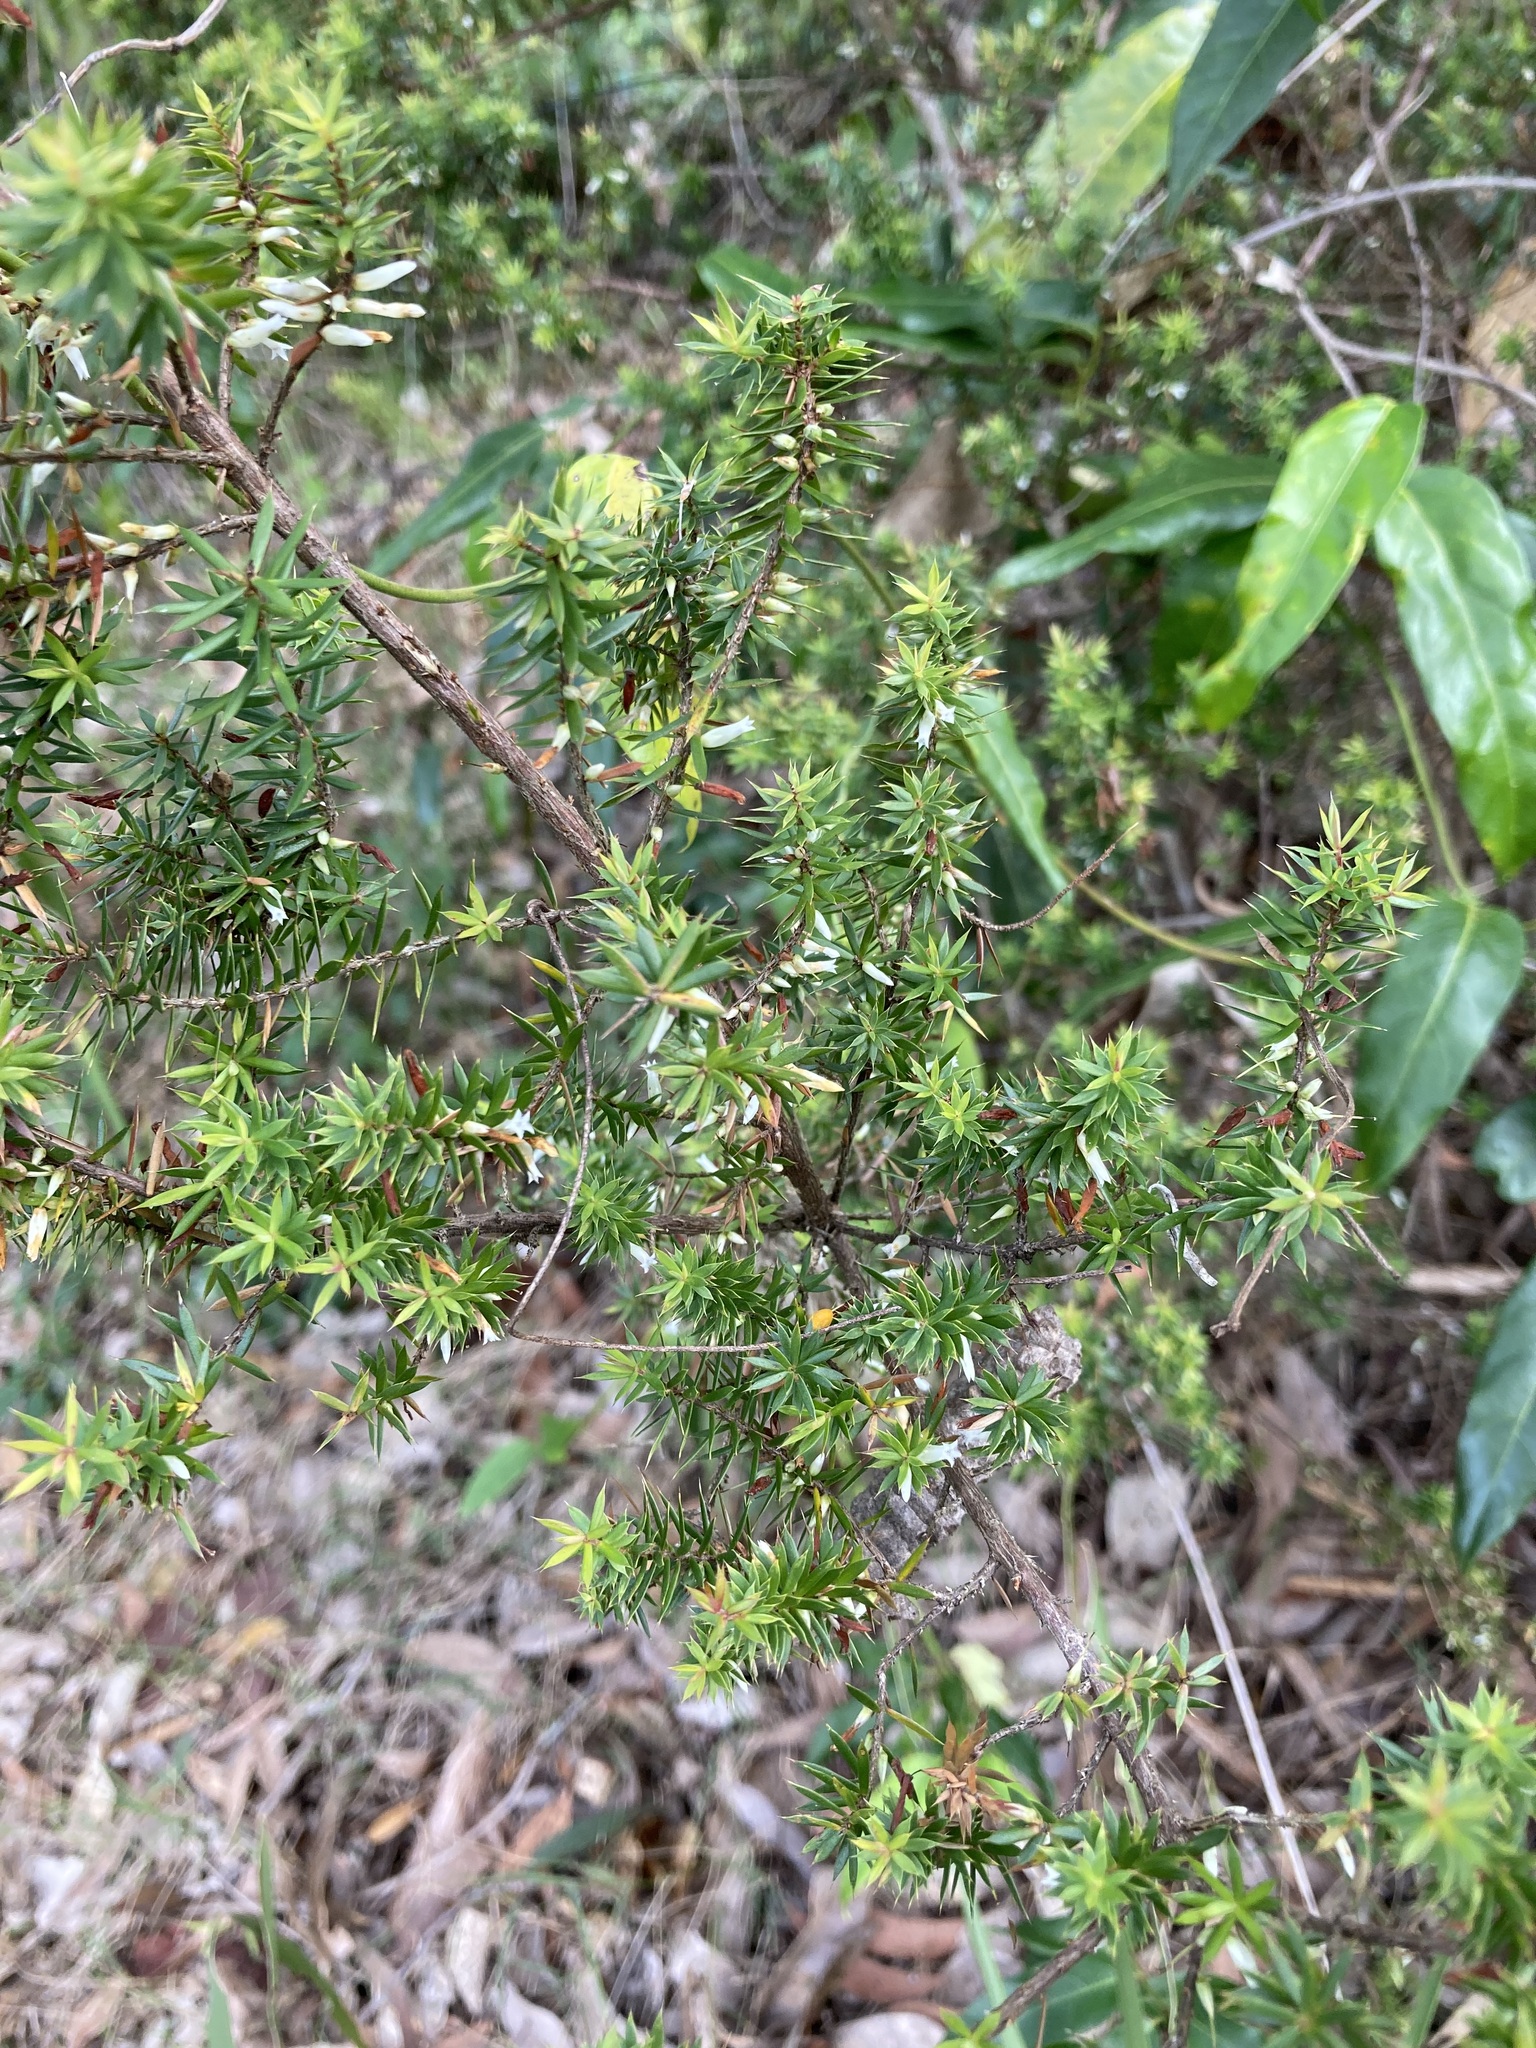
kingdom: Plantae
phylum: Tracheophyta
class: Magnoliopsida
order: Ericales
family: Ericaceae
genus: Styphelia
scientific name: Styphelia sieberi
